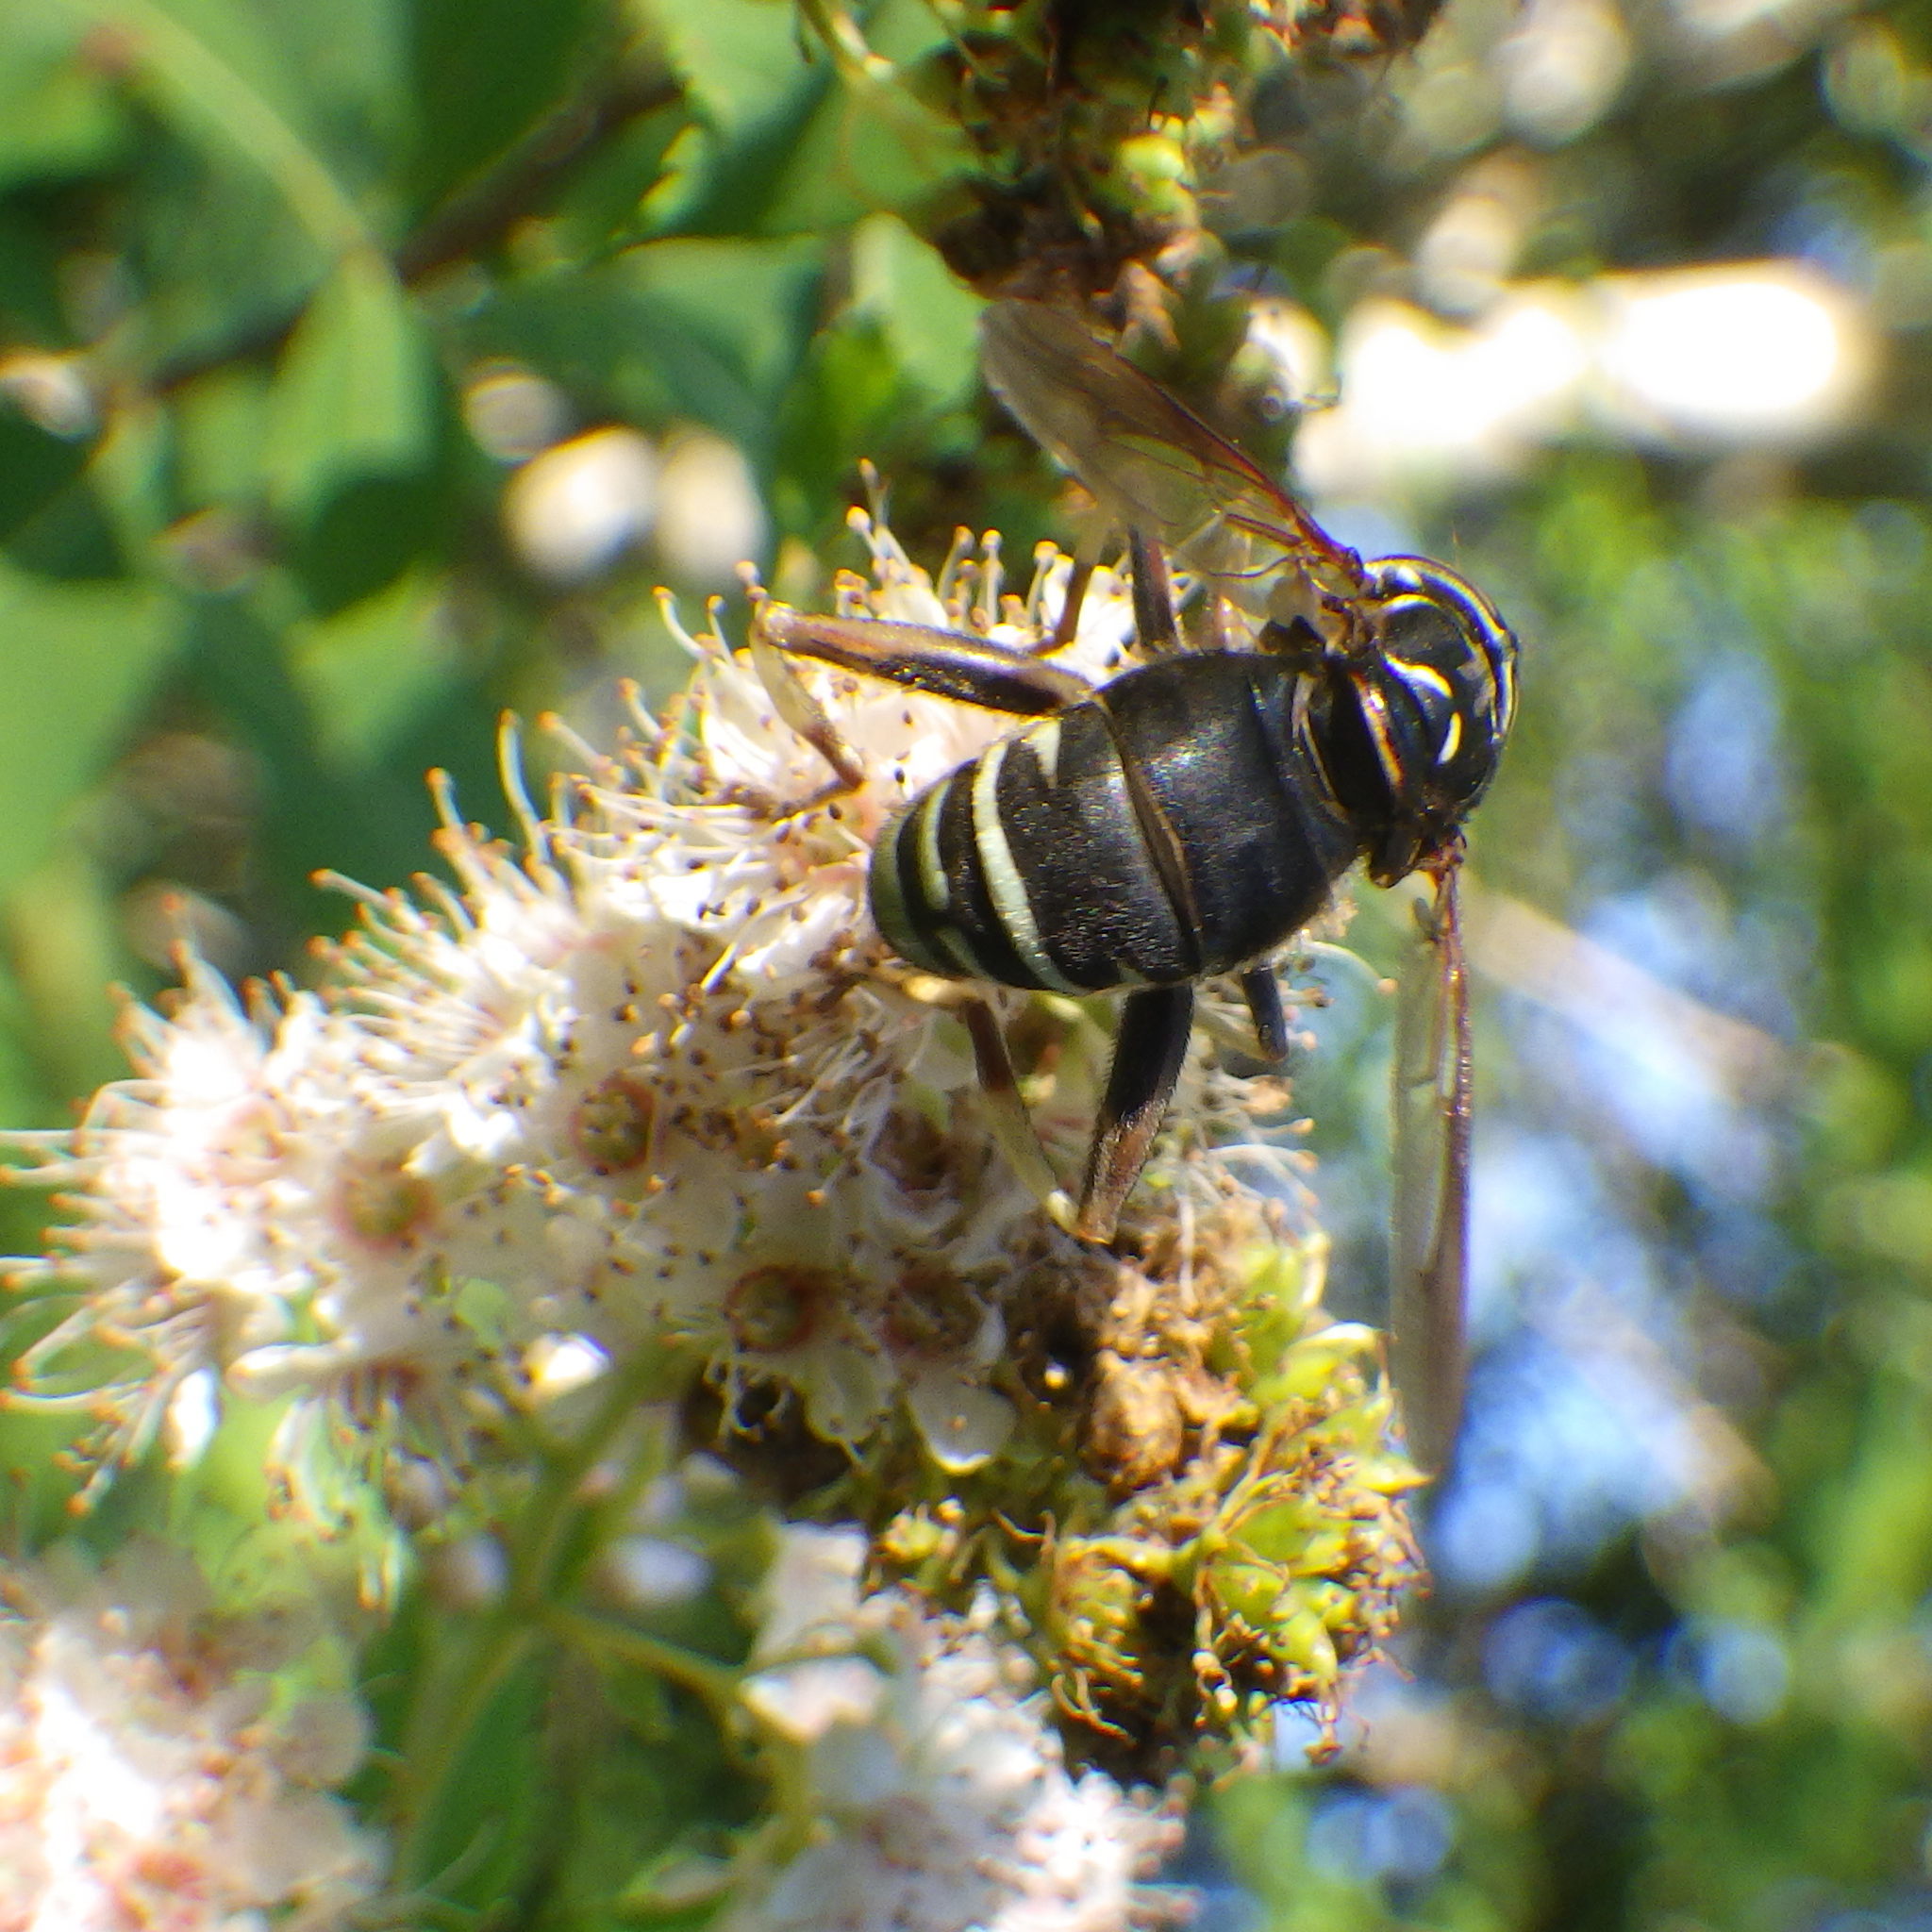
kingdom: Animalia
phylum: Arthropoda
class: Insecta
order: Diptera
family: Syrphidae
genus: Spilomyia
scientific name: Spilomyia fusca
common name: Bald-faced hornet fly
